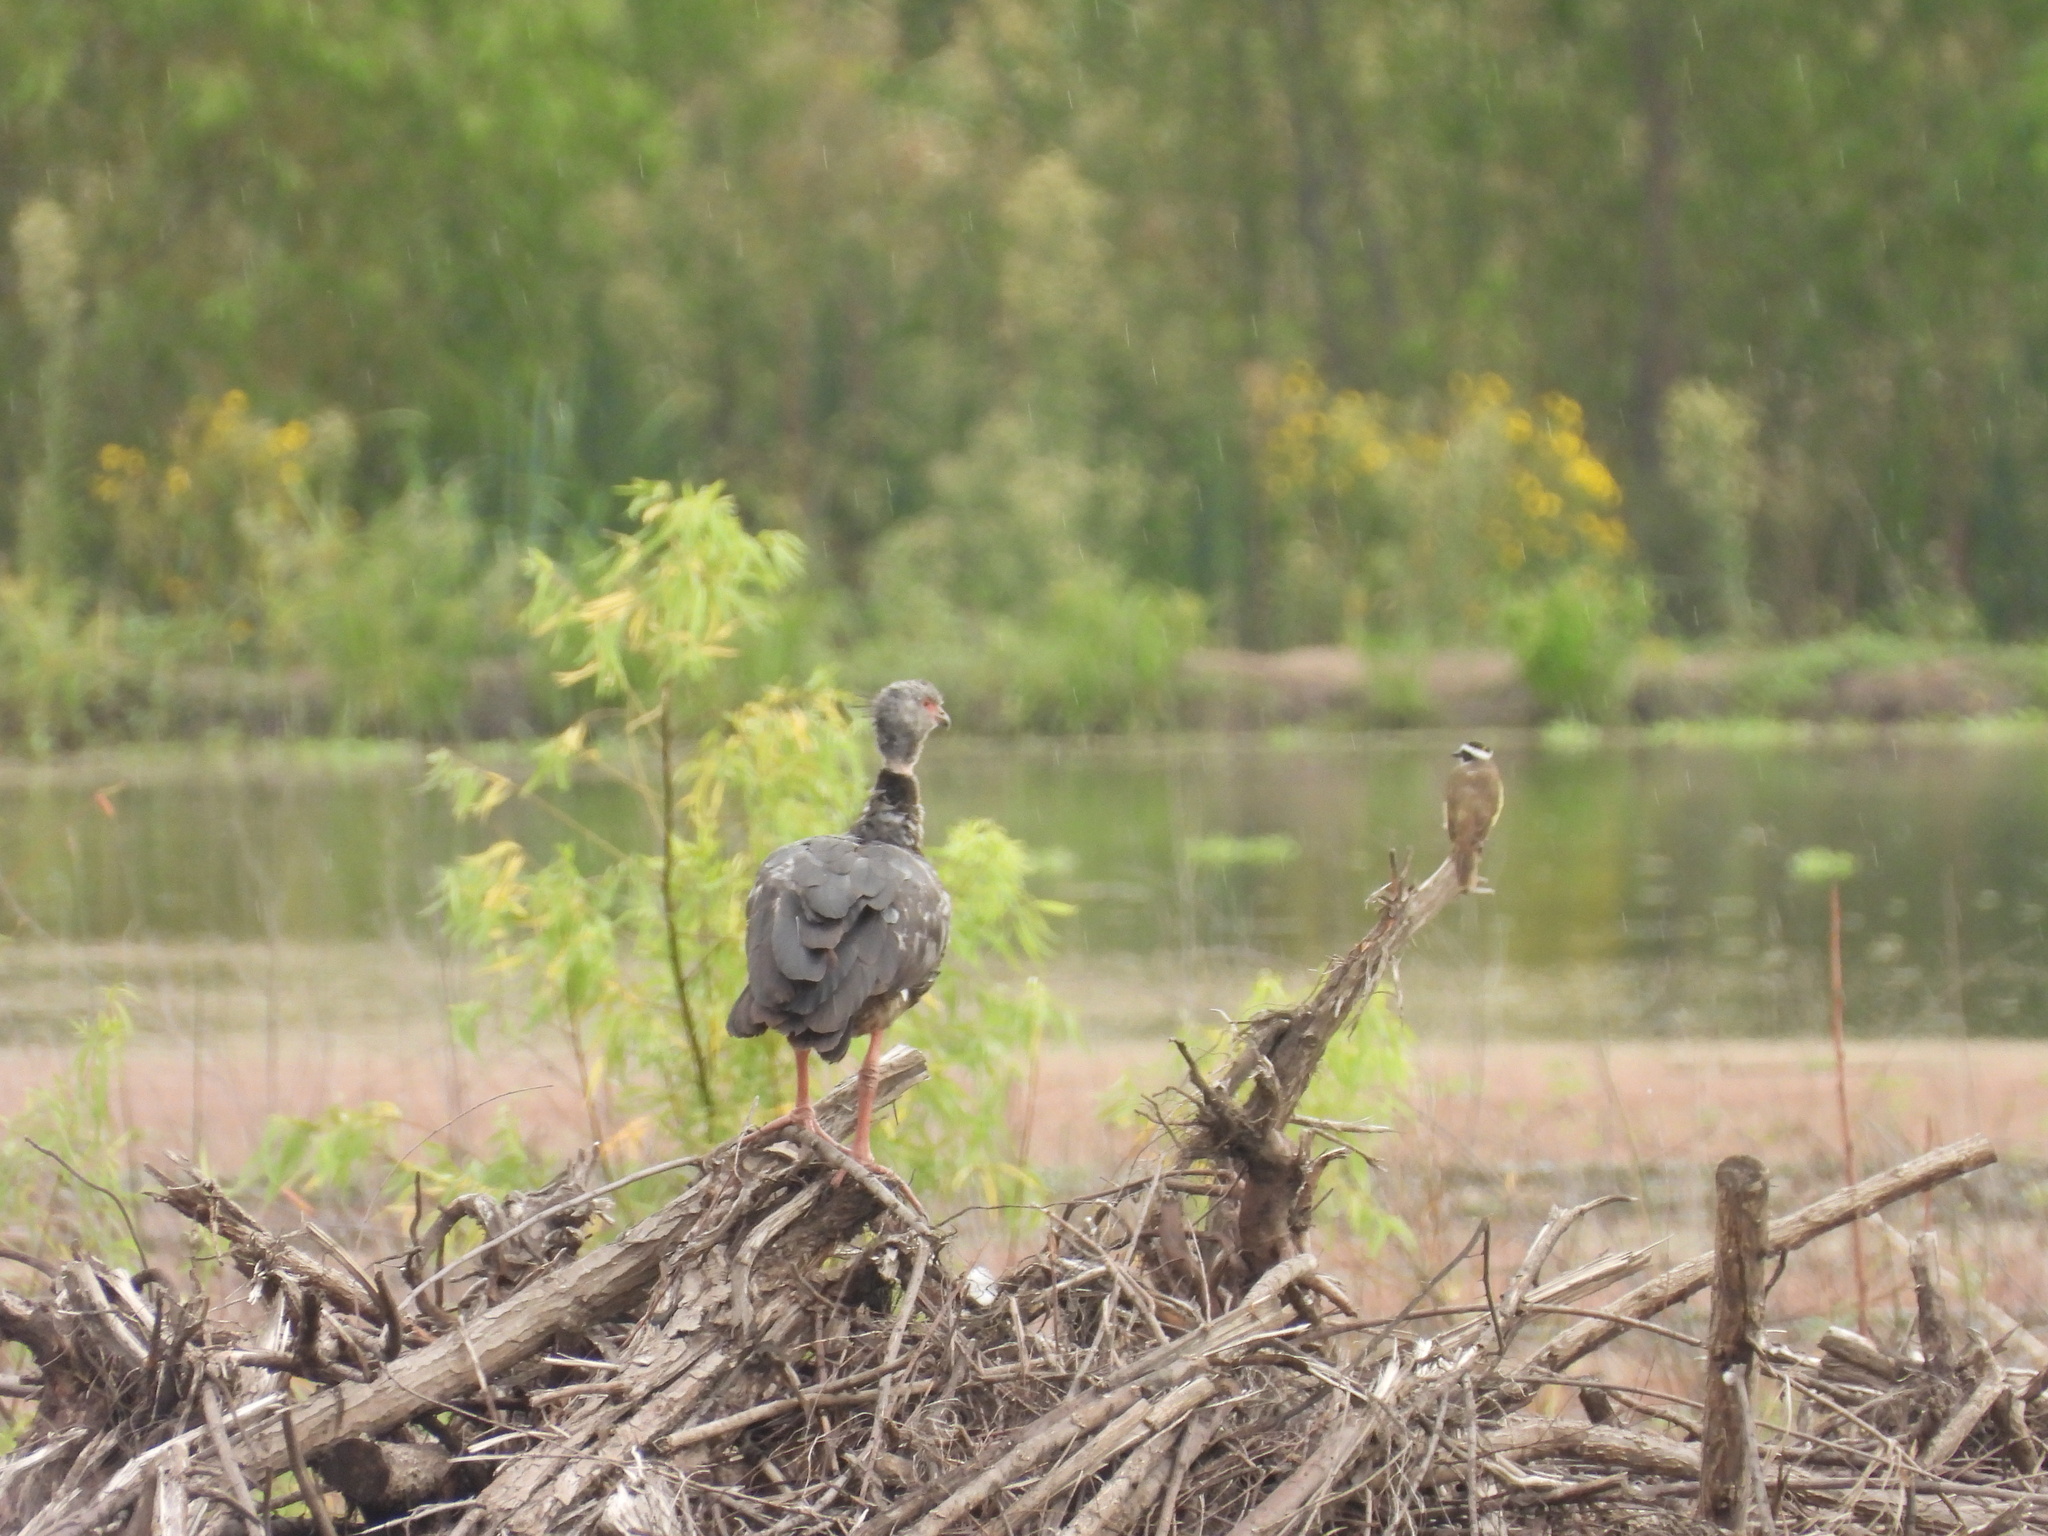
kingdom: Animalia
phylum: Chordata
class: Aves
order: Anseriformes
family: Anhimidae
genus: Chauna
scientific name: Chauna torquata
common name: Southern screamer
